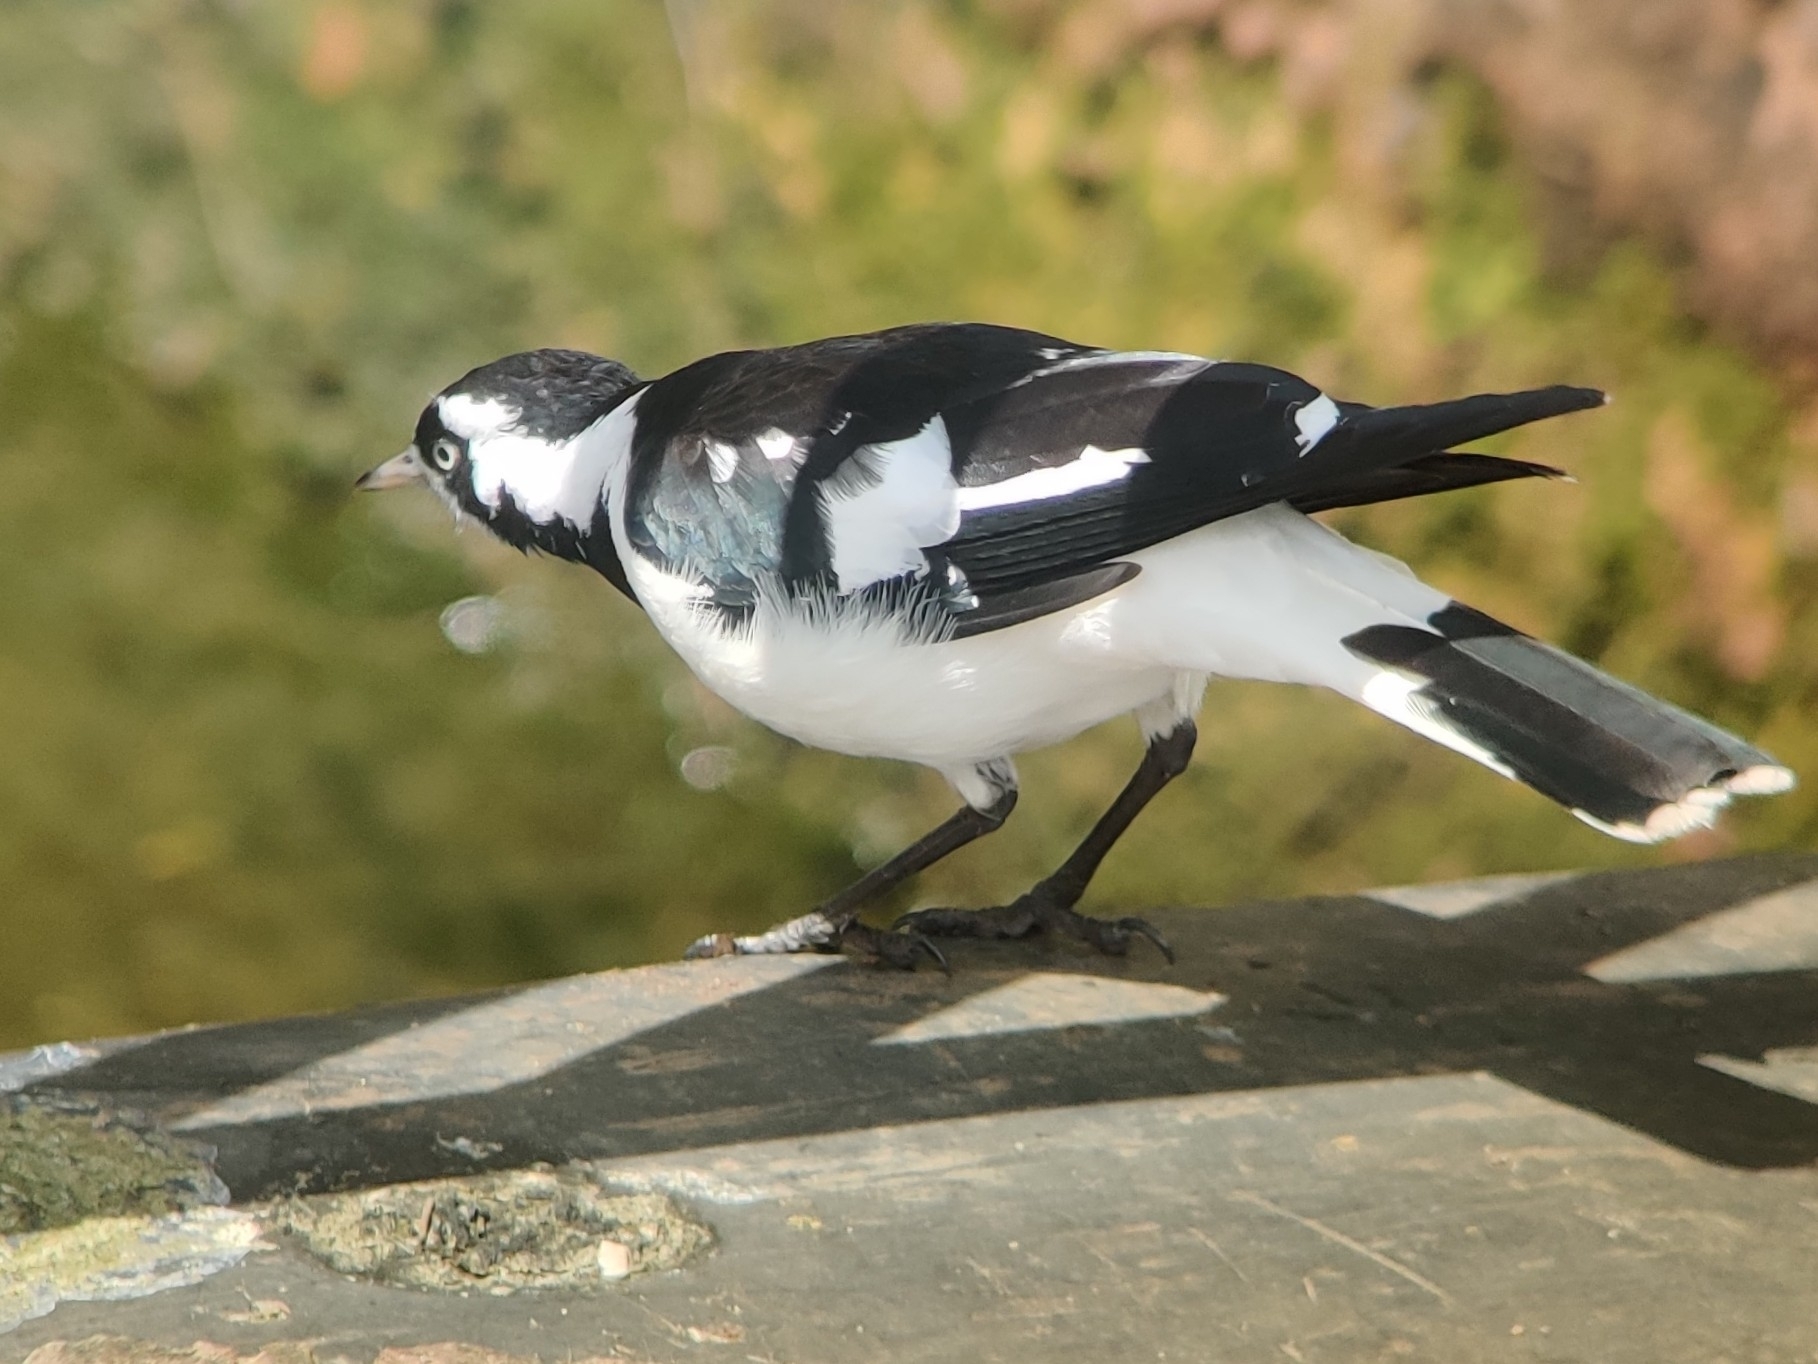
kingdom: Animalia
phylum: Chordata
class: Aves
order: Passeriformes
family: Monarchidae
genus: Grallina
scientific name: Grallina cyanoleuca
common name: Magpie-lark
